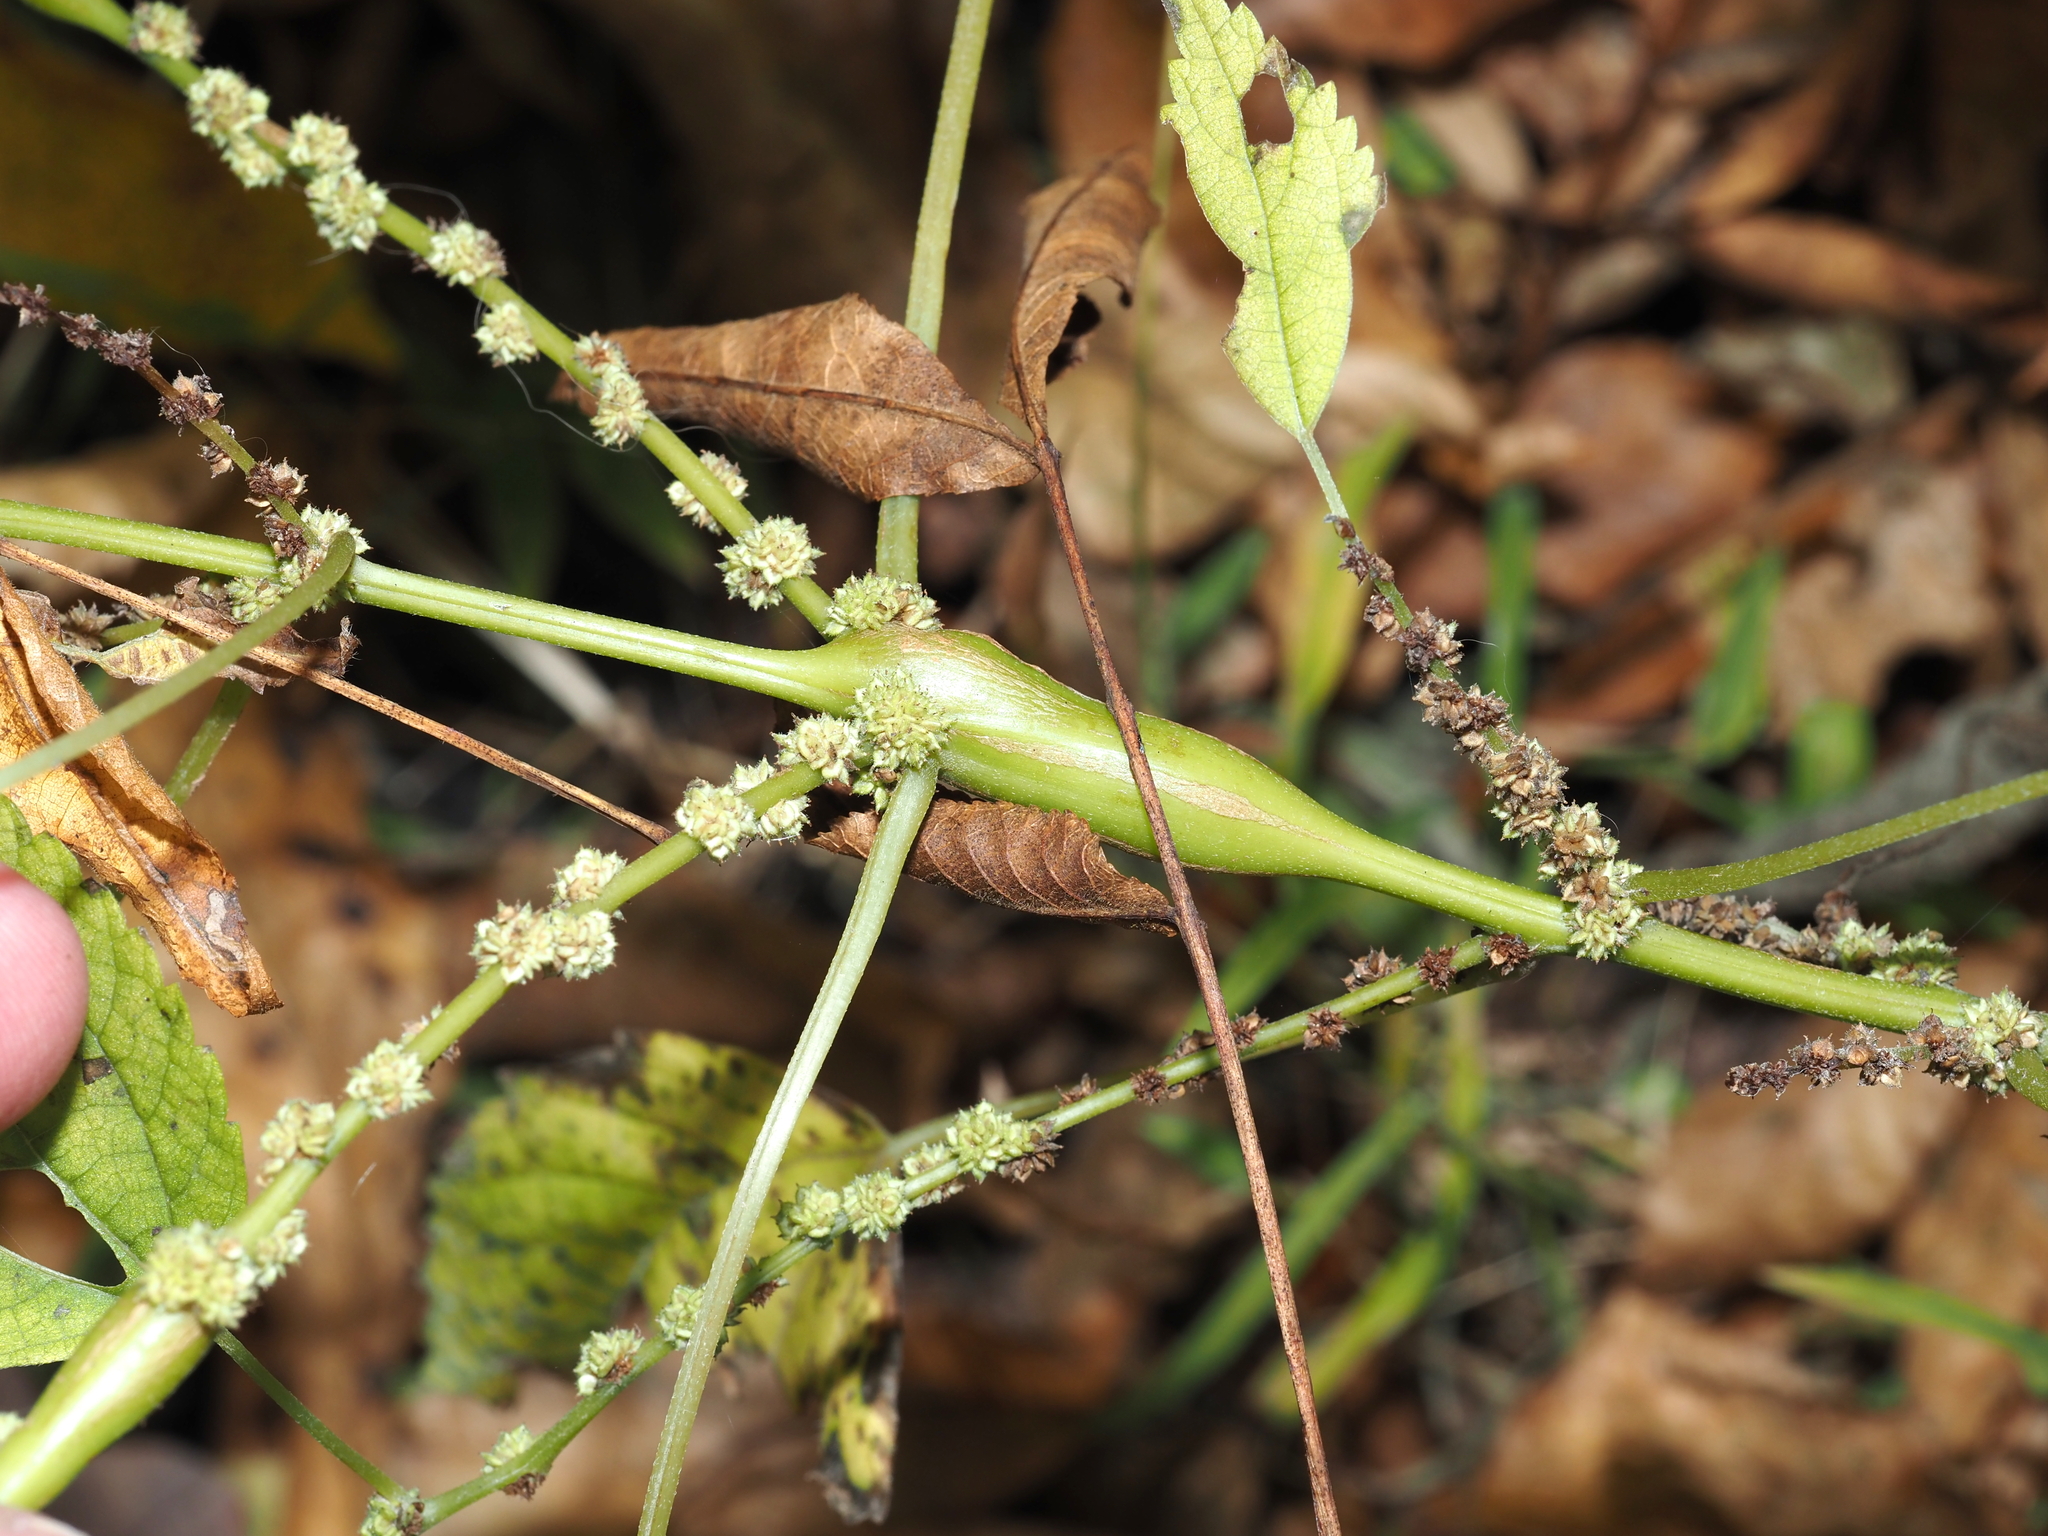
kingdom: Animalia
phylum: Arthropoda
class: Insecta
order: Diptera
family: Cecidomyiidae
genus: Neolasioptera
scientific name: Neolasioptera boehmeriae
